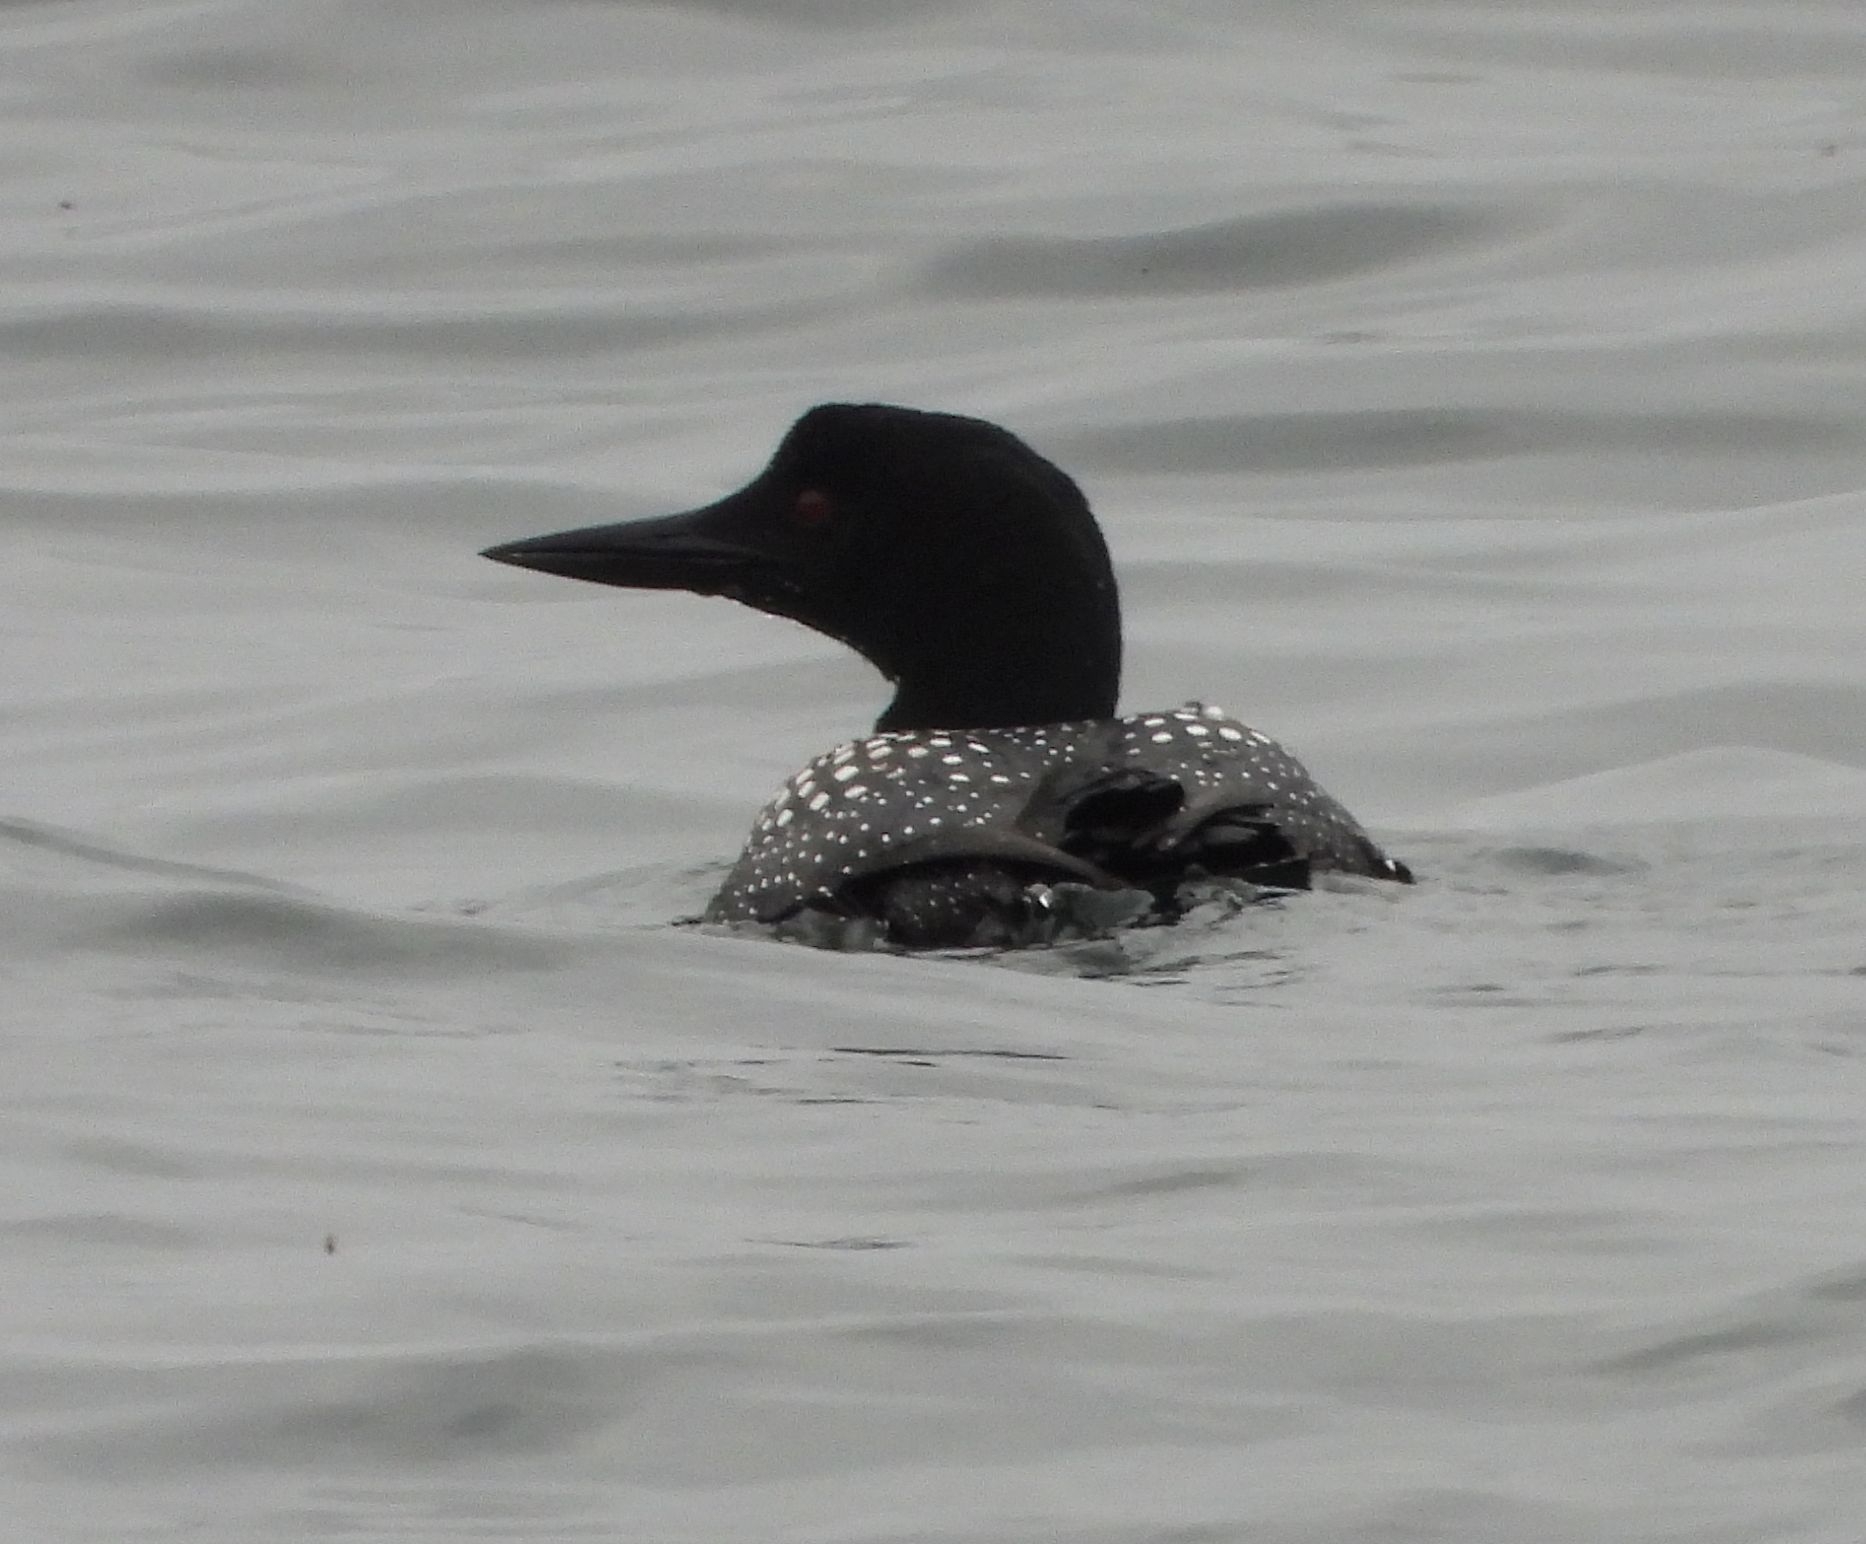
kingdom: Animalia
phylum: Chordata
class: Aves
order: Gaviiformes
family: Gaviidae
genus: Gavia
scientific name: Gavia immer
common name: Common loon
